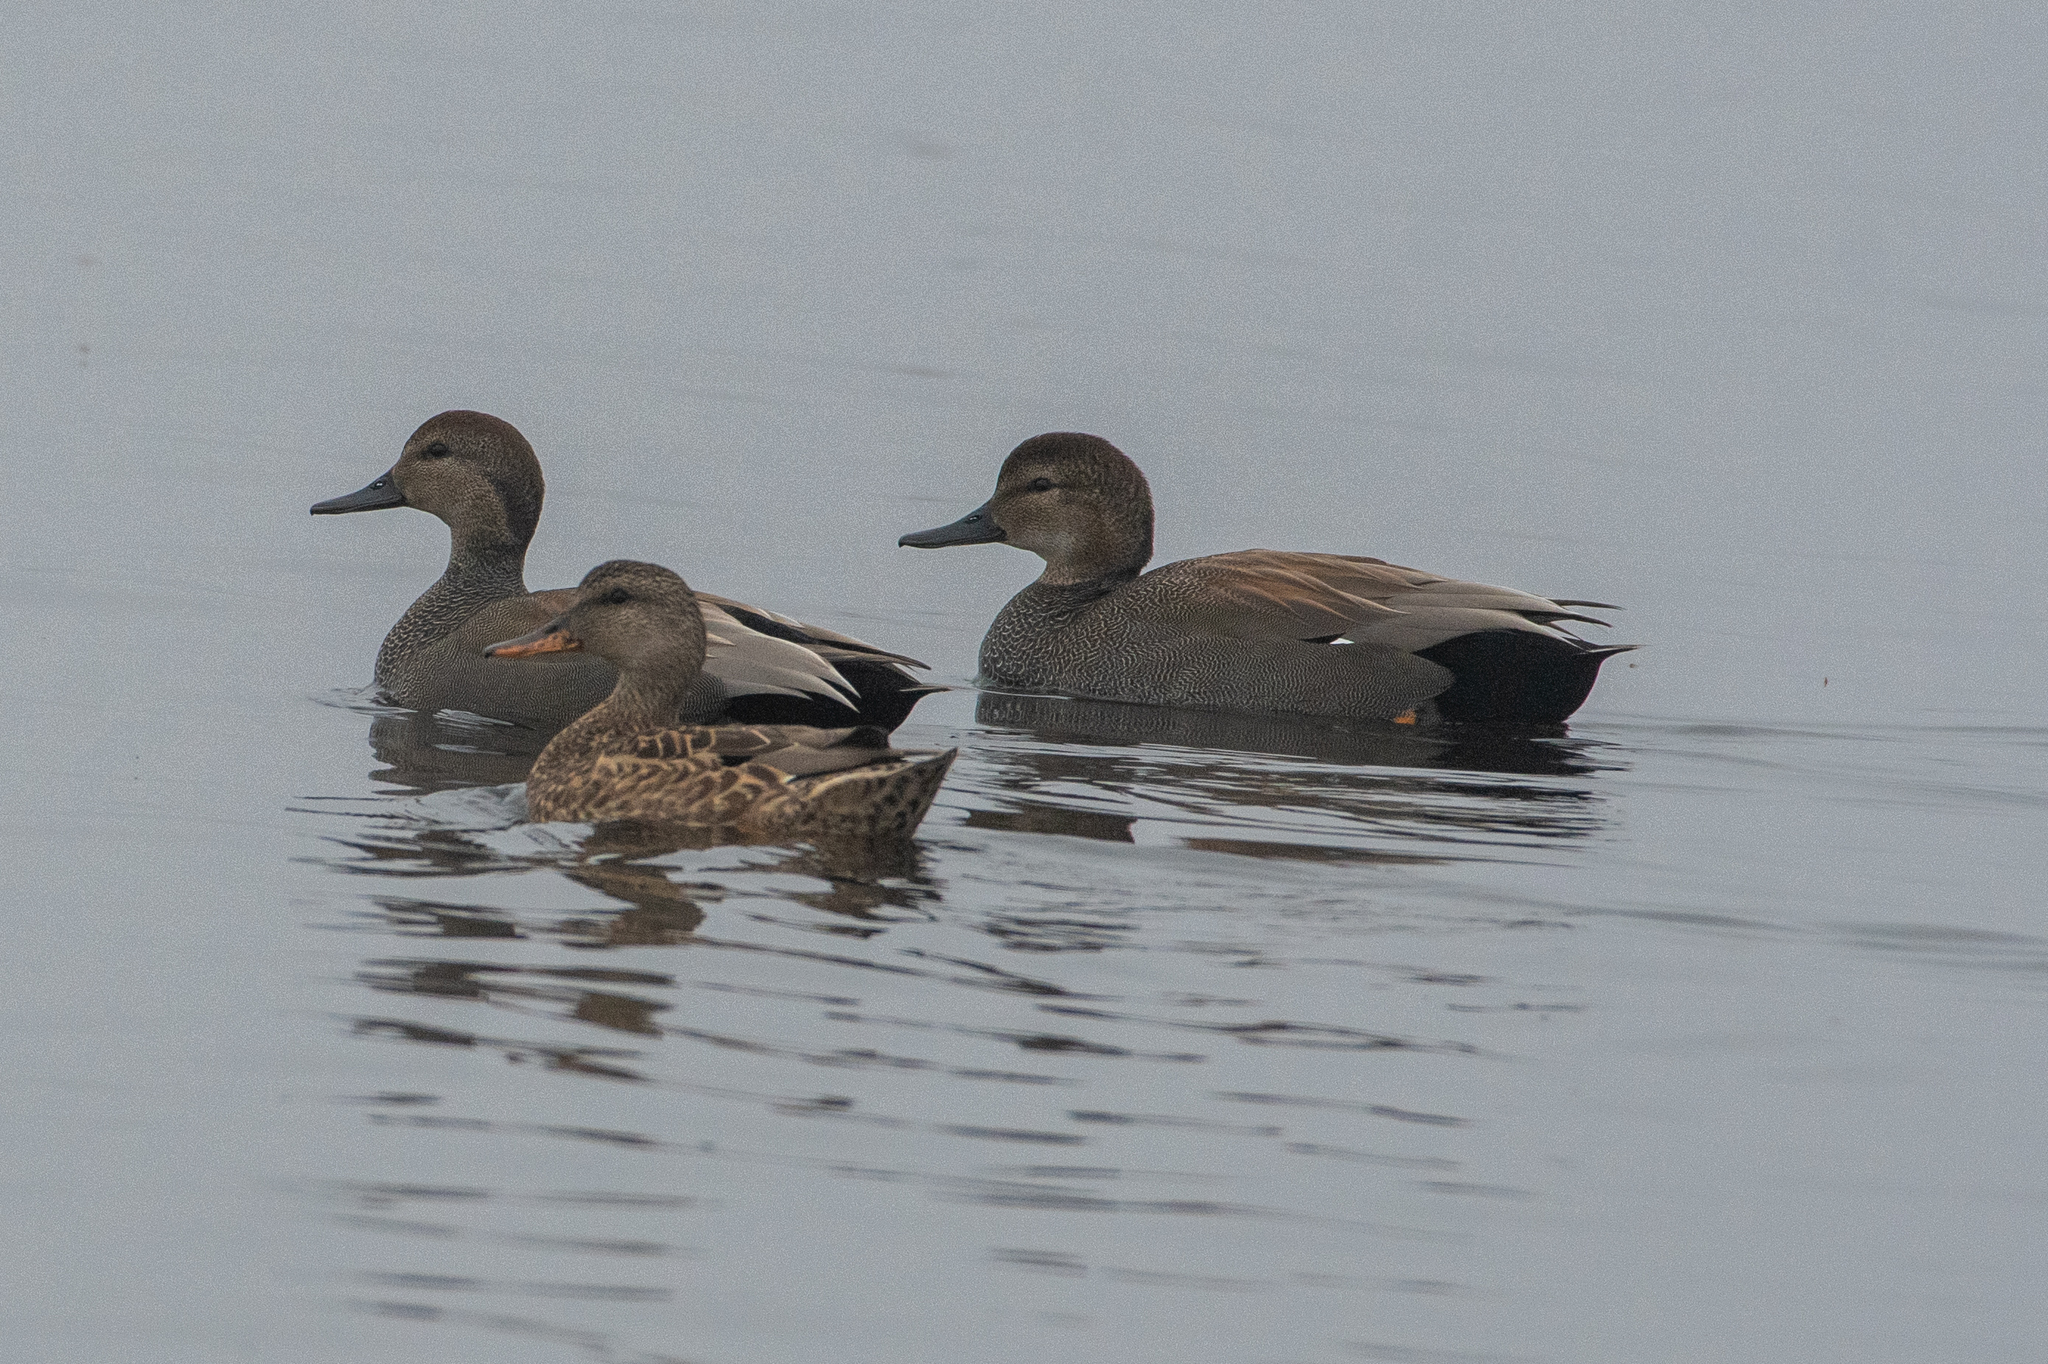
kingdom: Animalia
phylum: Chordata
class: Aves
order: Anseriformes
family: Anatidae
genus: Mareca
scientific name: Mareca strepera
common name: Gadwall
